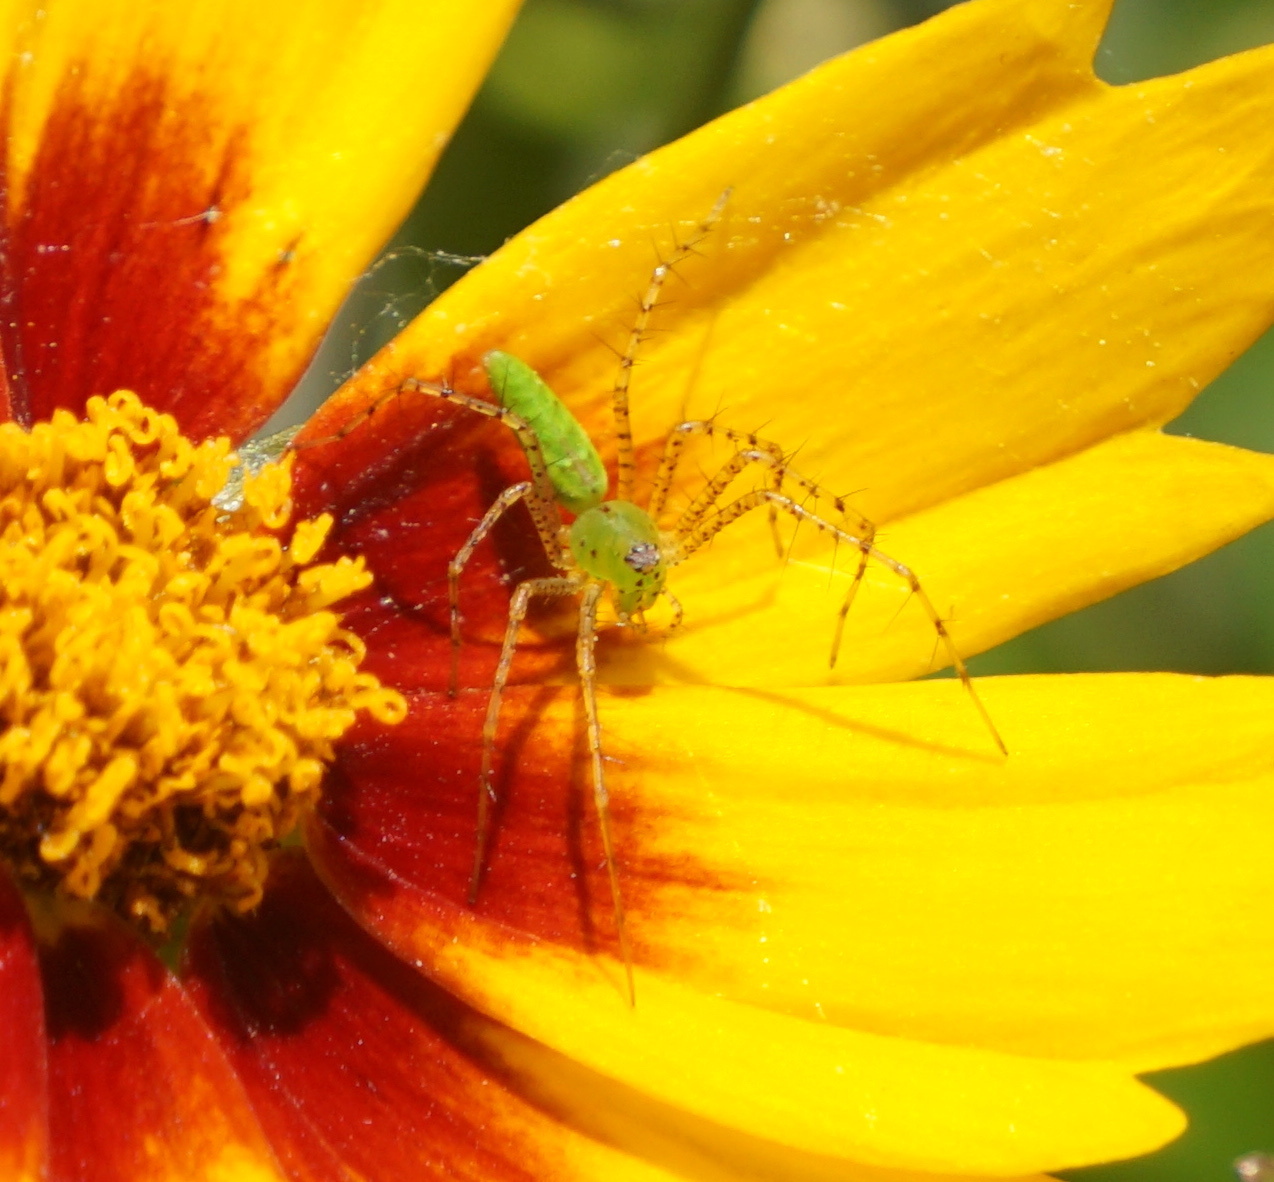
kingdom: Animalia
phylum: Arthropoda
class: Arachnida
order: Araneae
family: Oxyopidae
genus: Peucetia
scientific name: Peucetia viridans
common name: Lynx spiders
